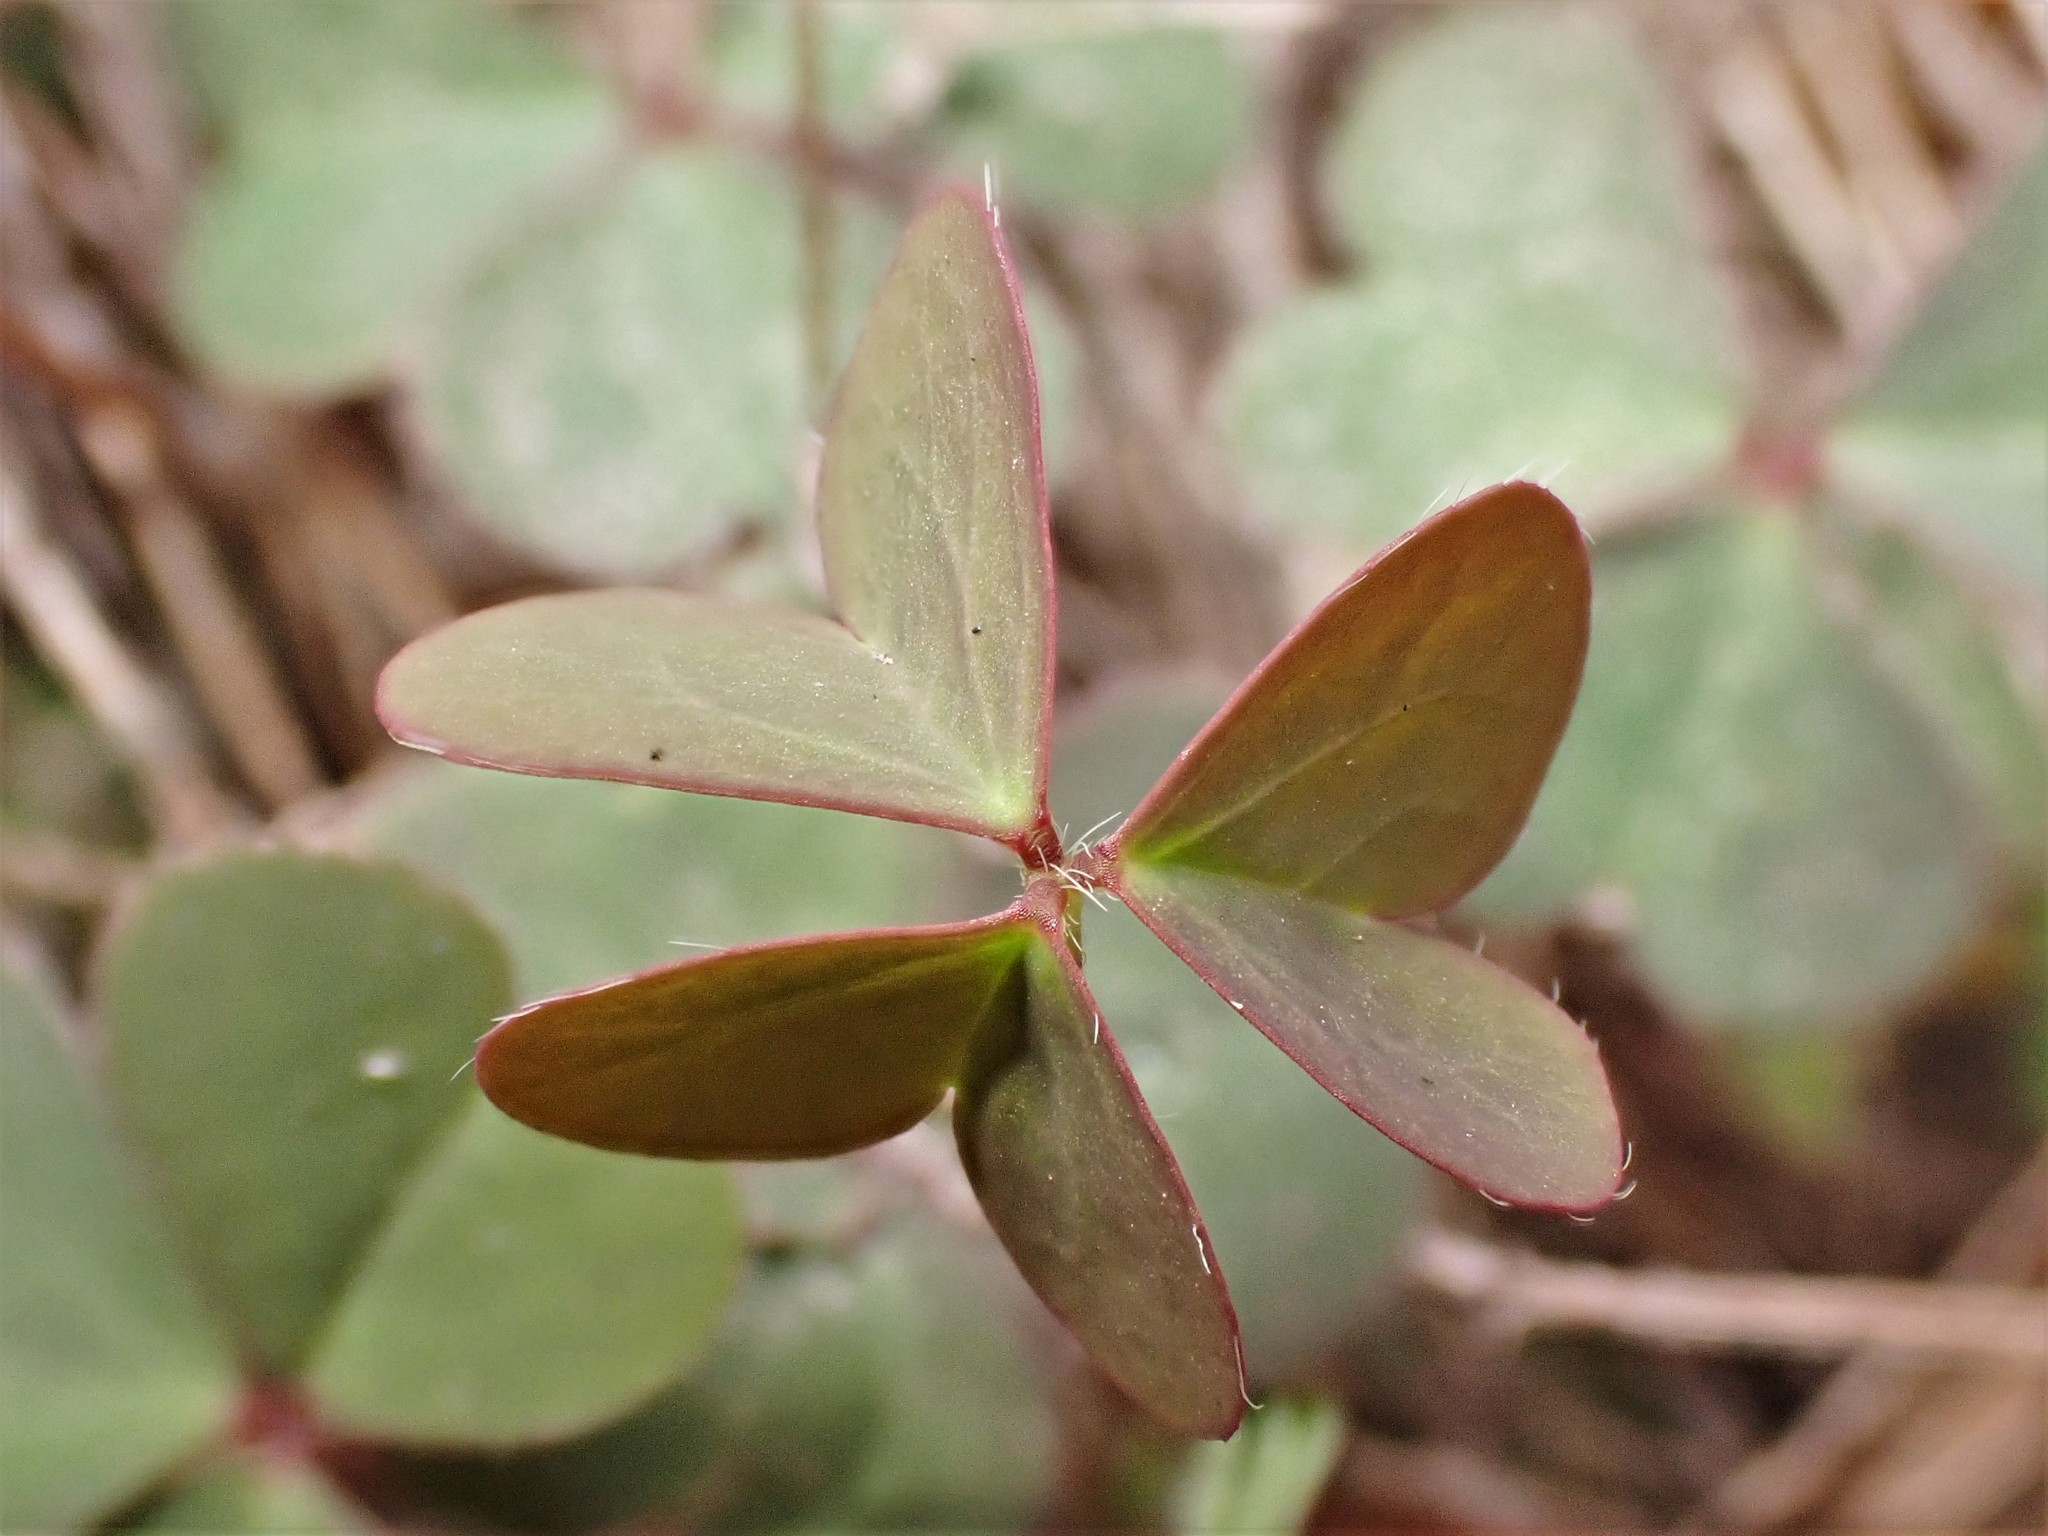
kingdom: Plantae
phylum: Tracheophyta
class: Magnoliopsida
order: Oxalidales
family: Oxalidaceae
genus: Oxalis
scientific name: Oxalis corniculata
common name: Procumbent yellow-sorrel
